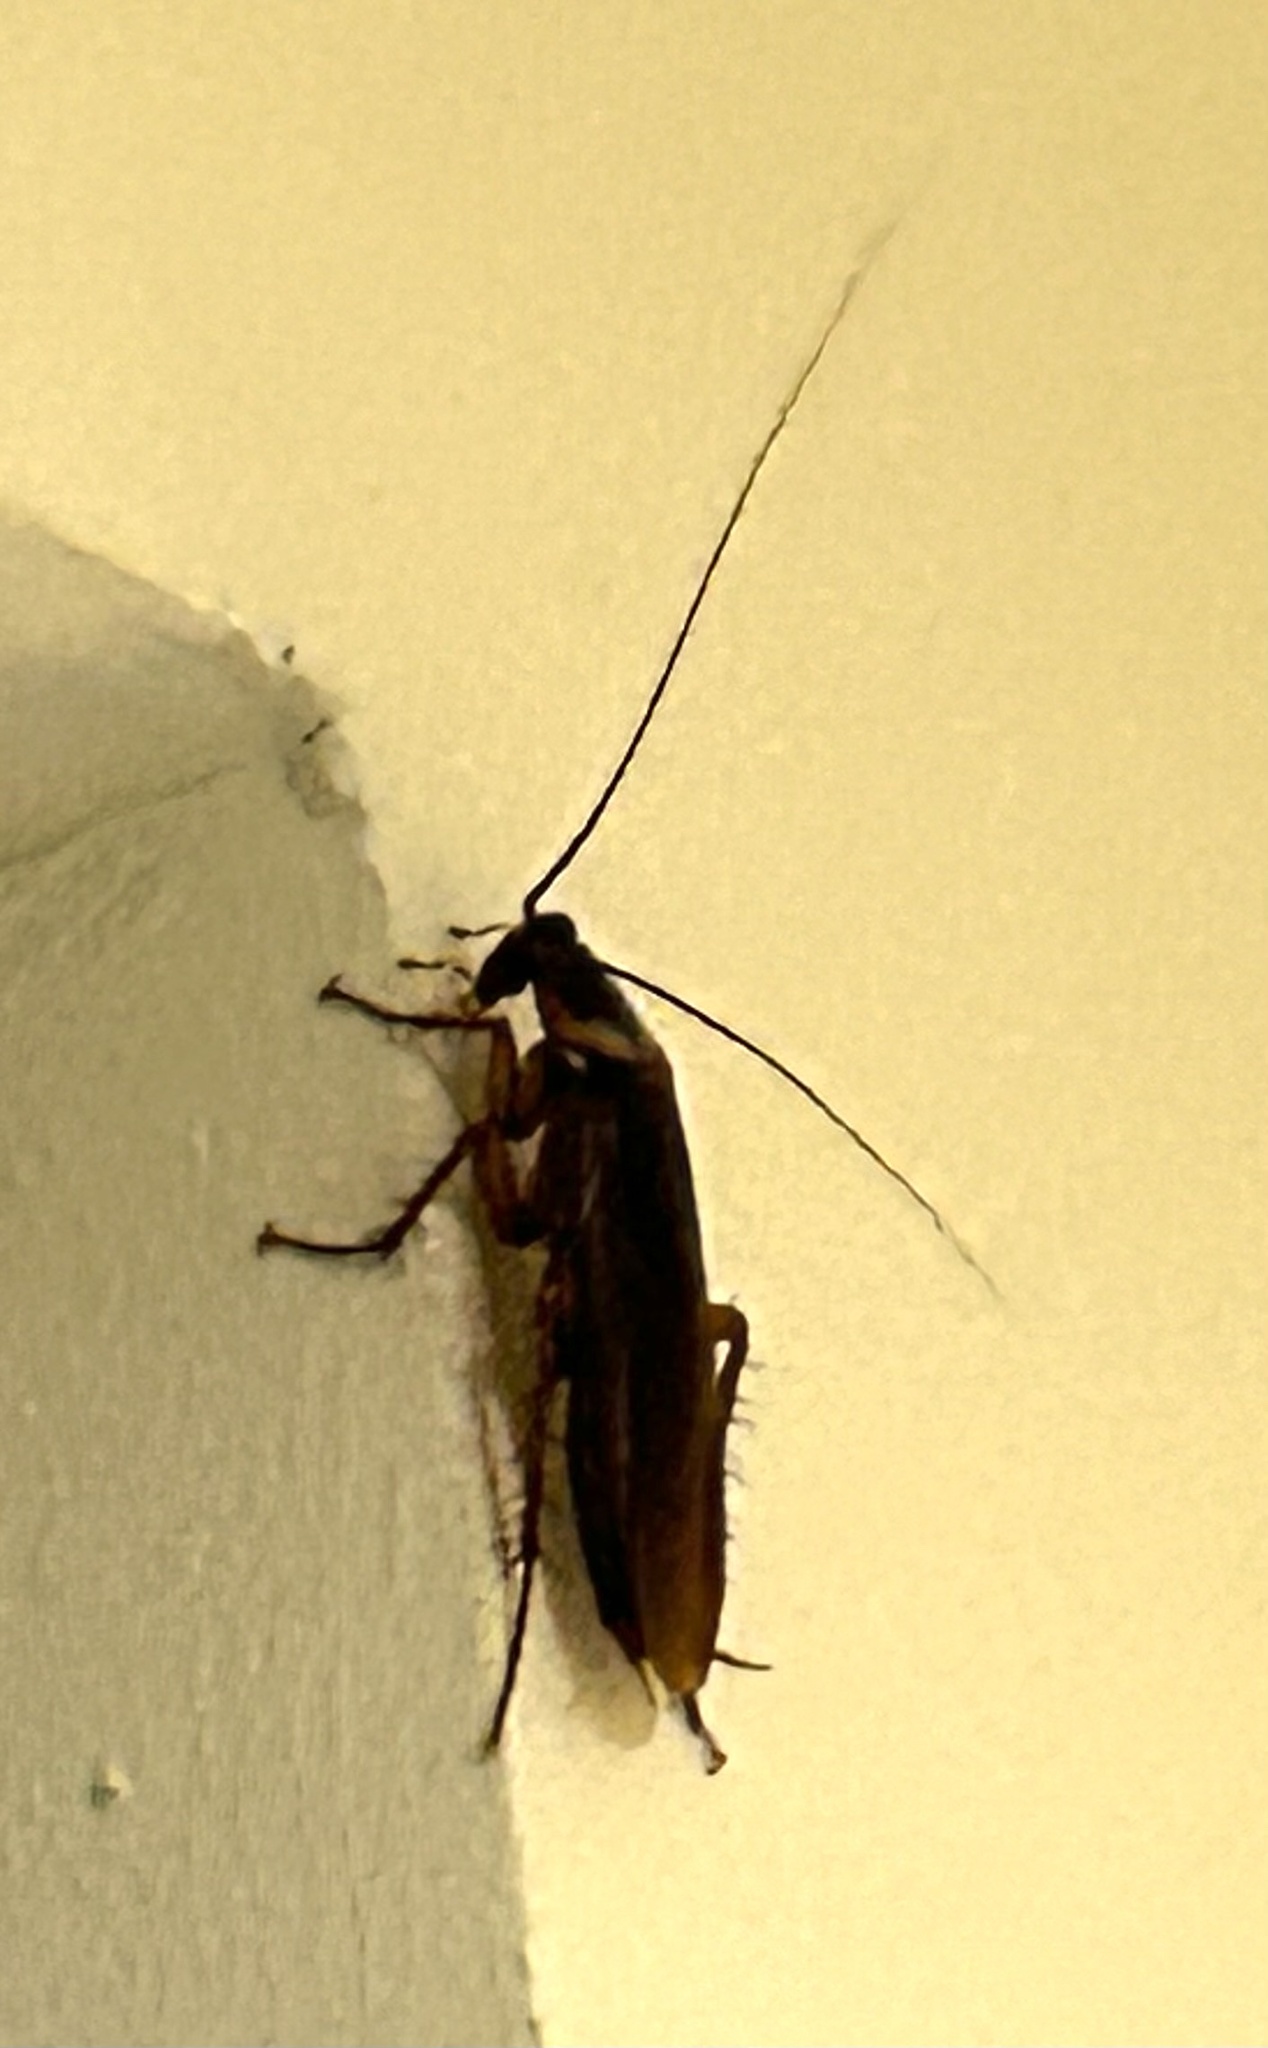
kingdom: Animalia
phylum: Arthropoda
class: Insecta
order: Blattodea
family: Blattidae
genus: Periplaneta
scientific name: Periplaneta americana
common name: American cockroach
